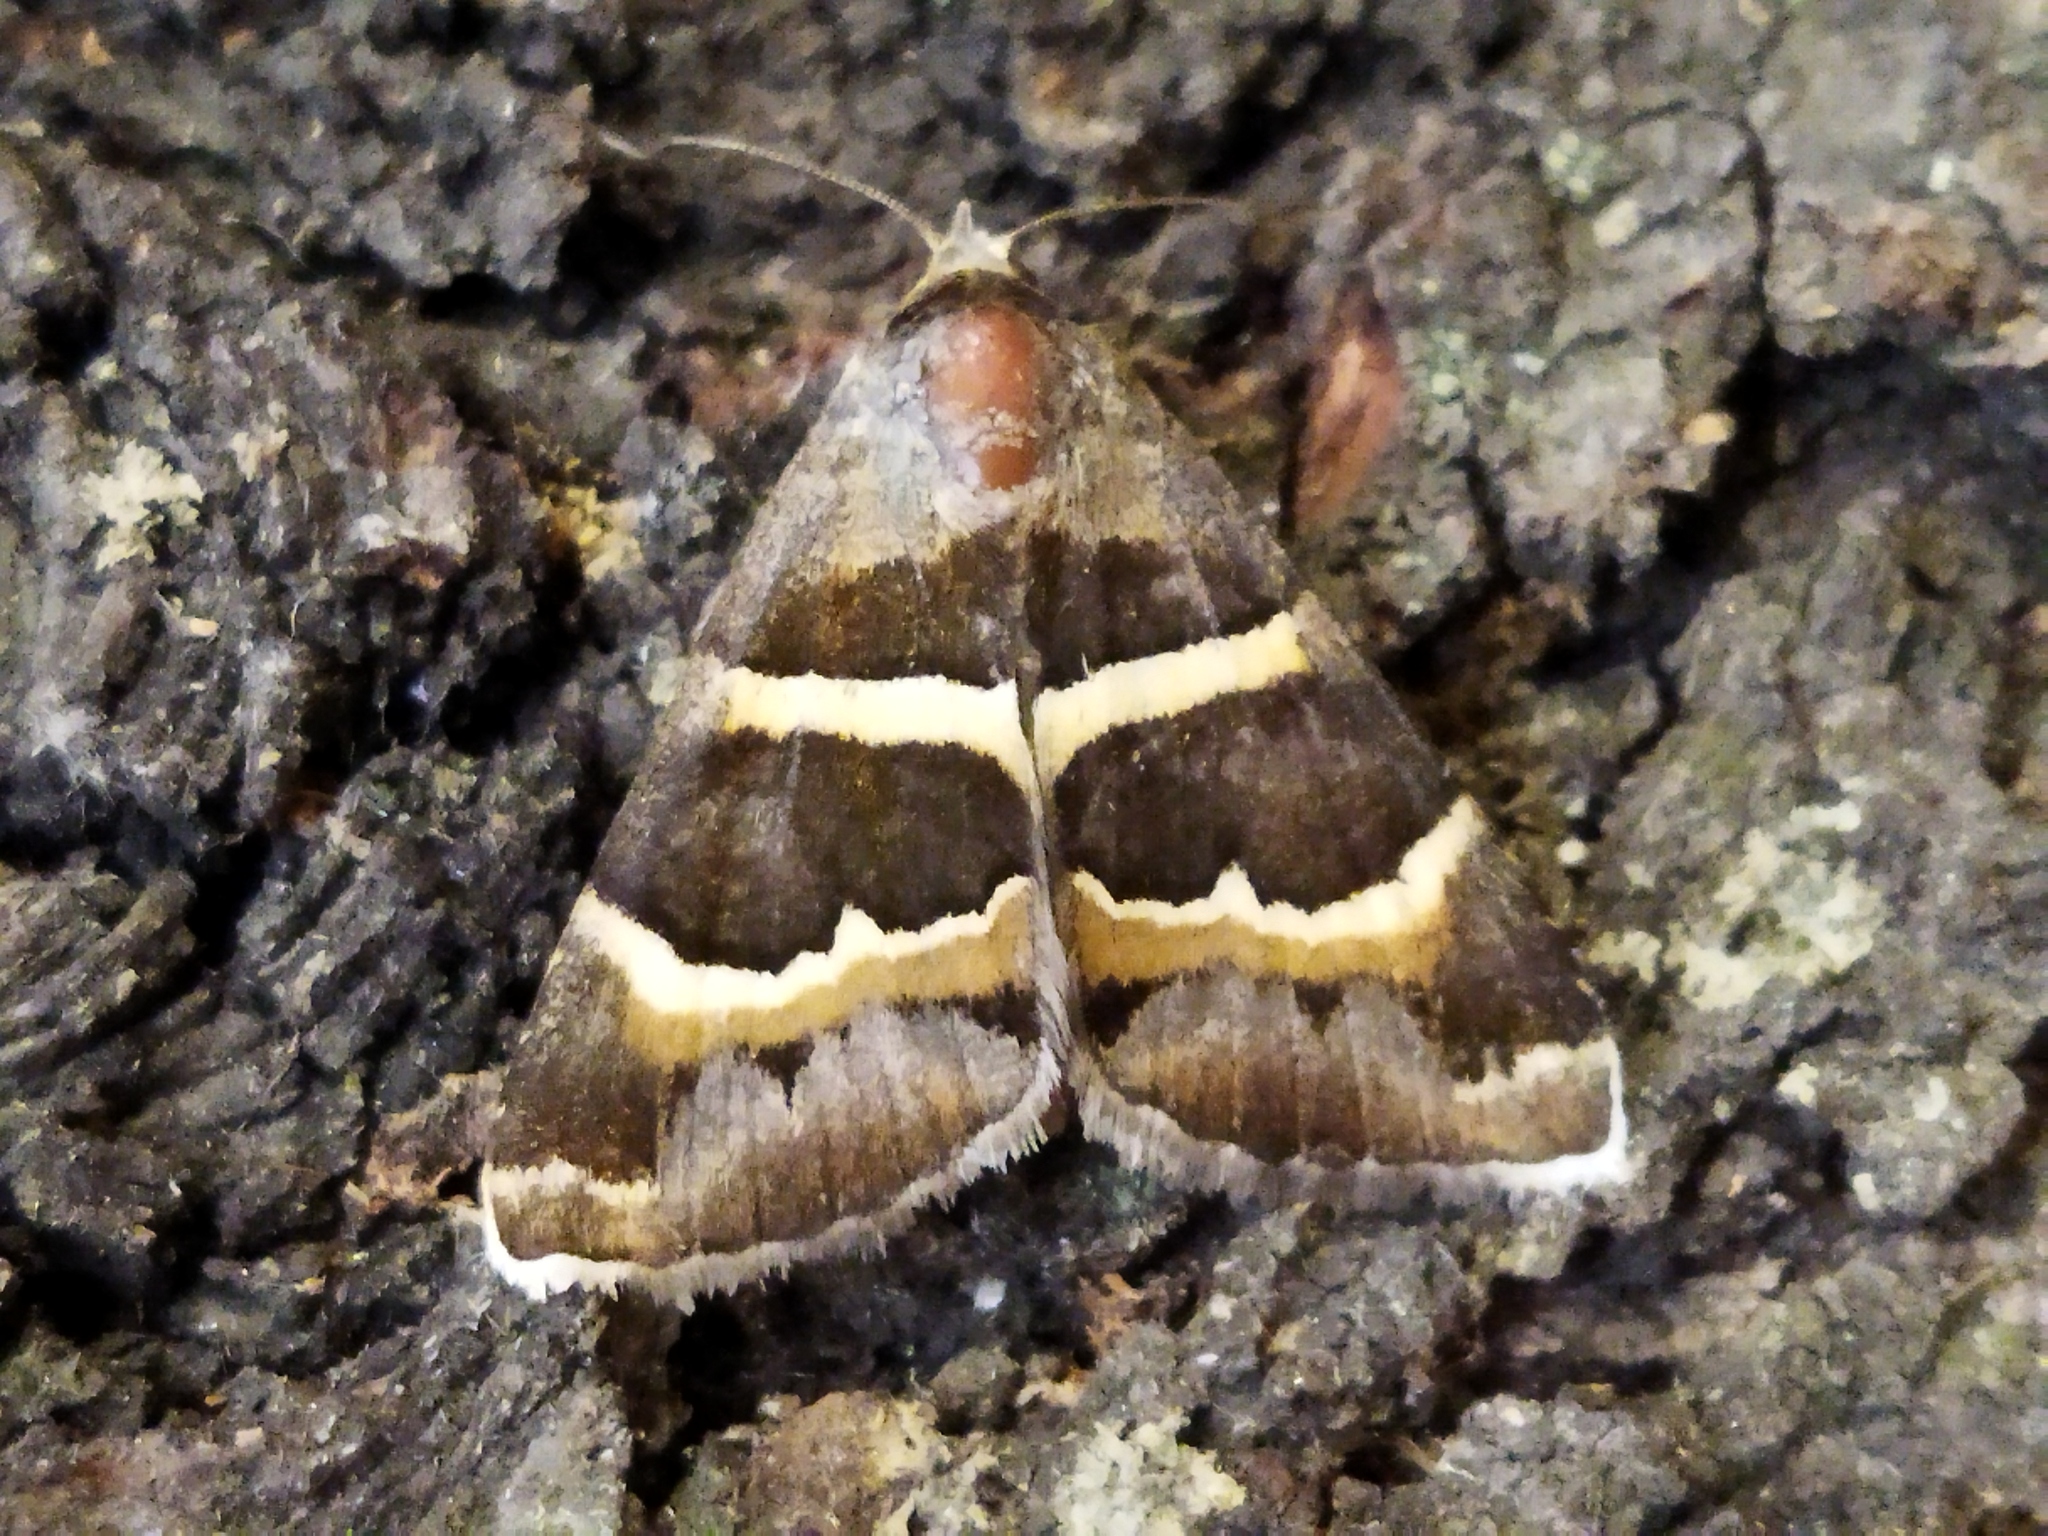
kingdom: Animalia
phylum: Arthropoda
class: Insecta
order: Lepidoptera
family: Erebidae
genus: Grammodes
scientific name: Grammodes stolida
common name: Geometrician
